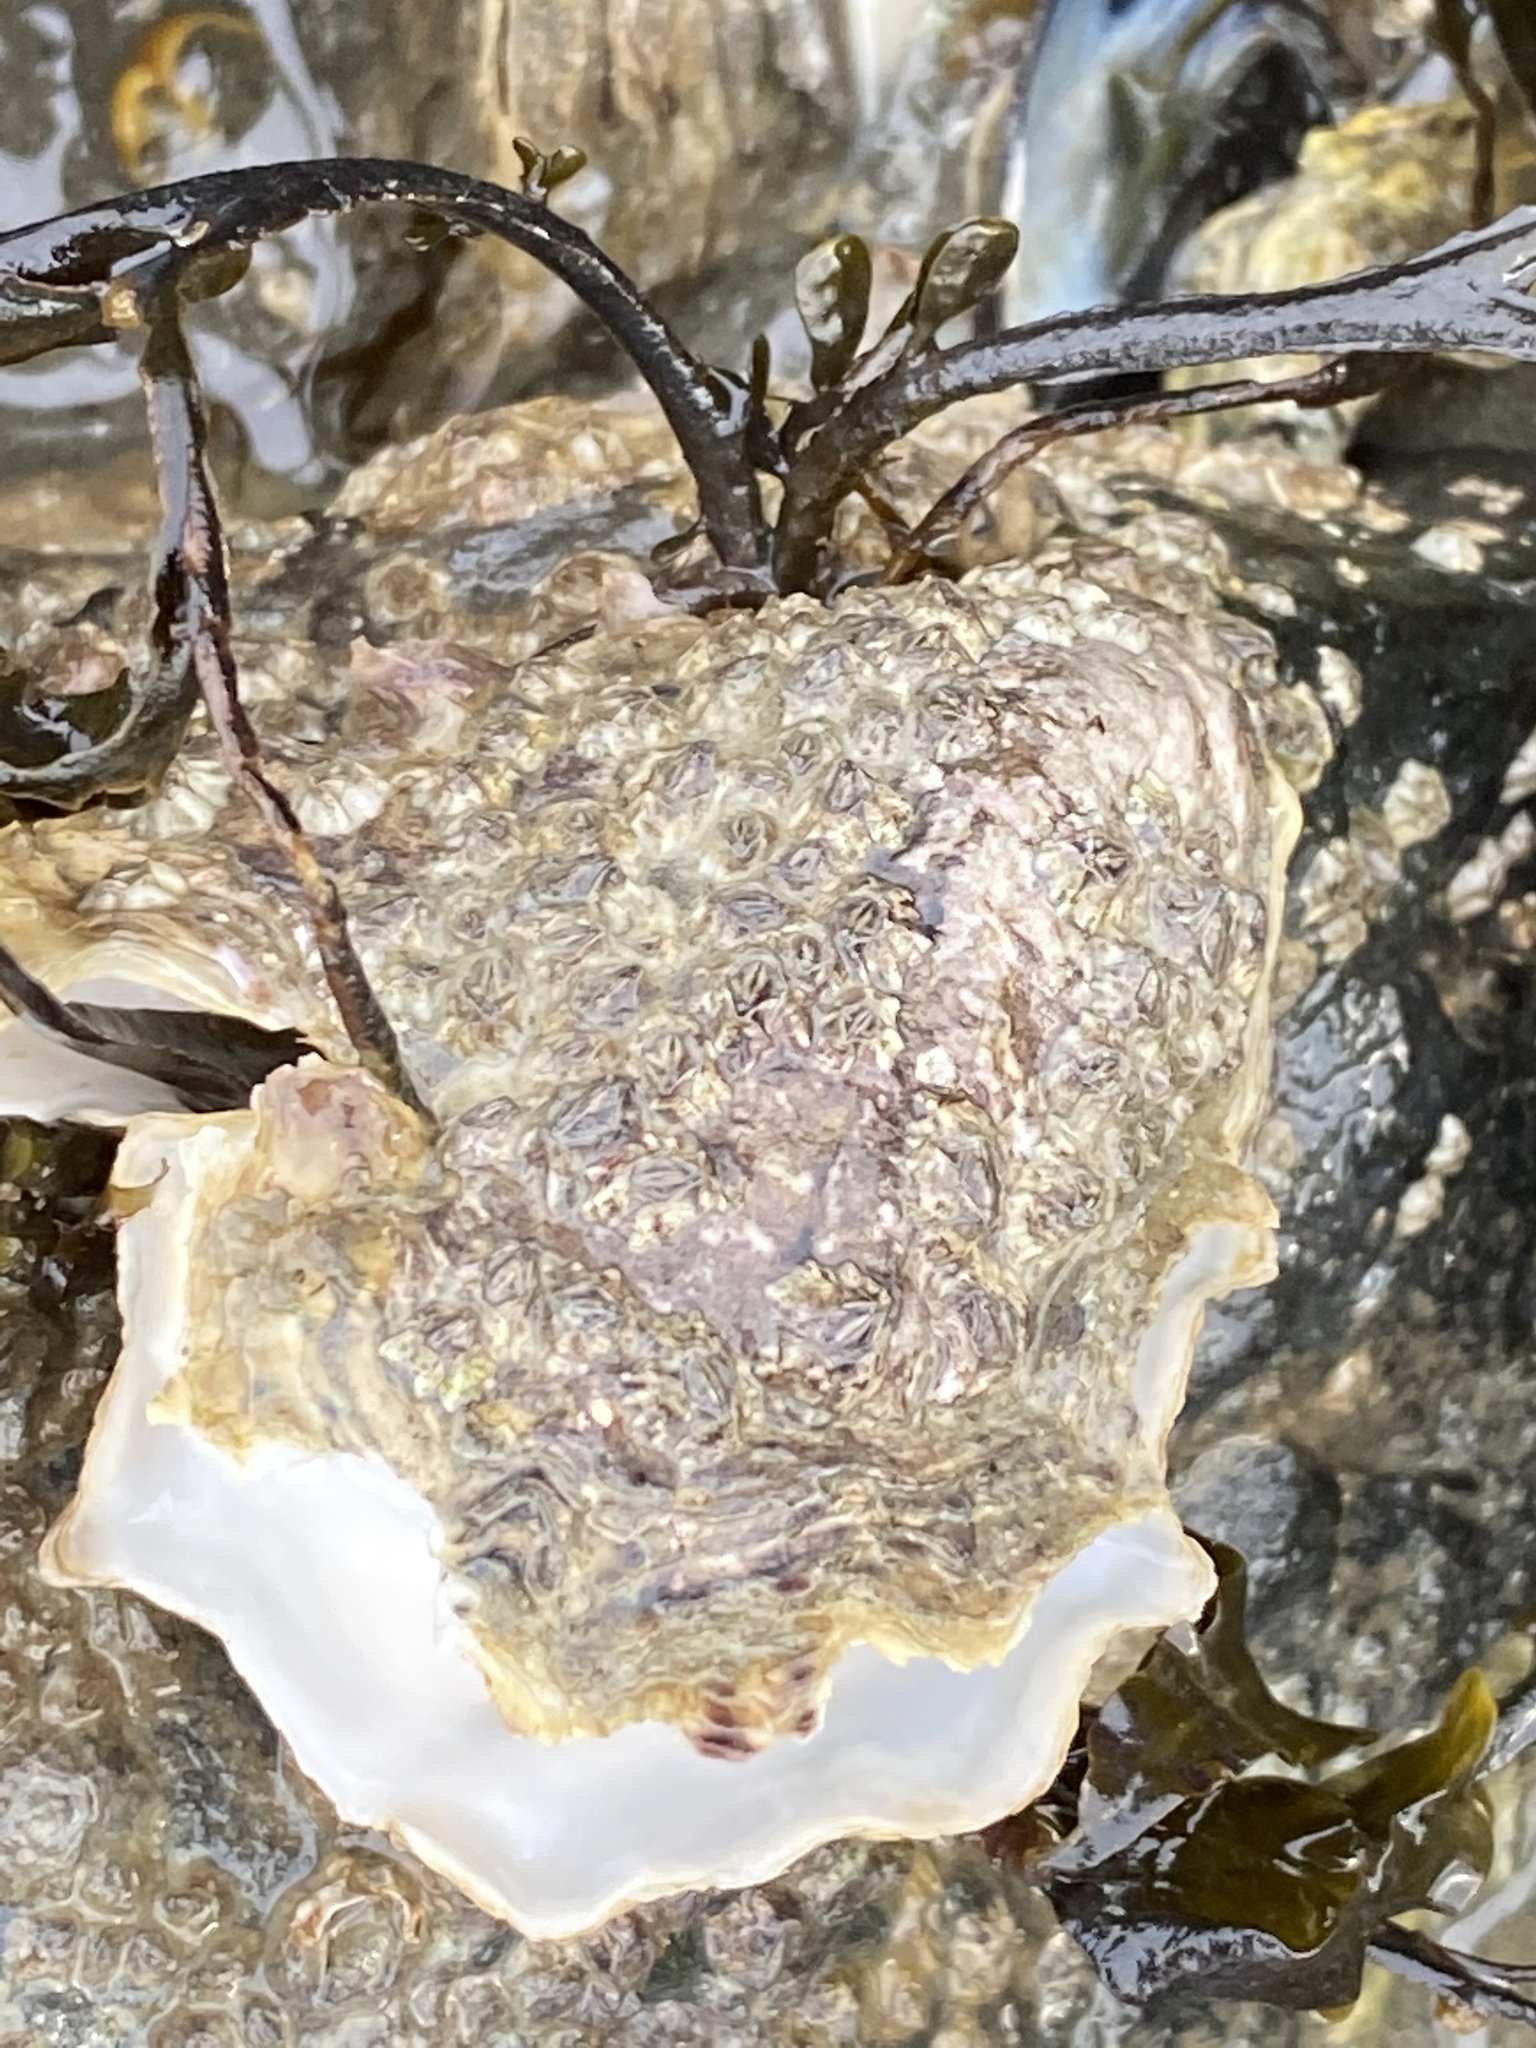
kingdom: Animalia
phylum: Mollusca
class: Bivalvia
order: Ostreida
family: Ostreidae
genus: Magallana
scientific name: Magallana gigas
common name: Pacific oyster
